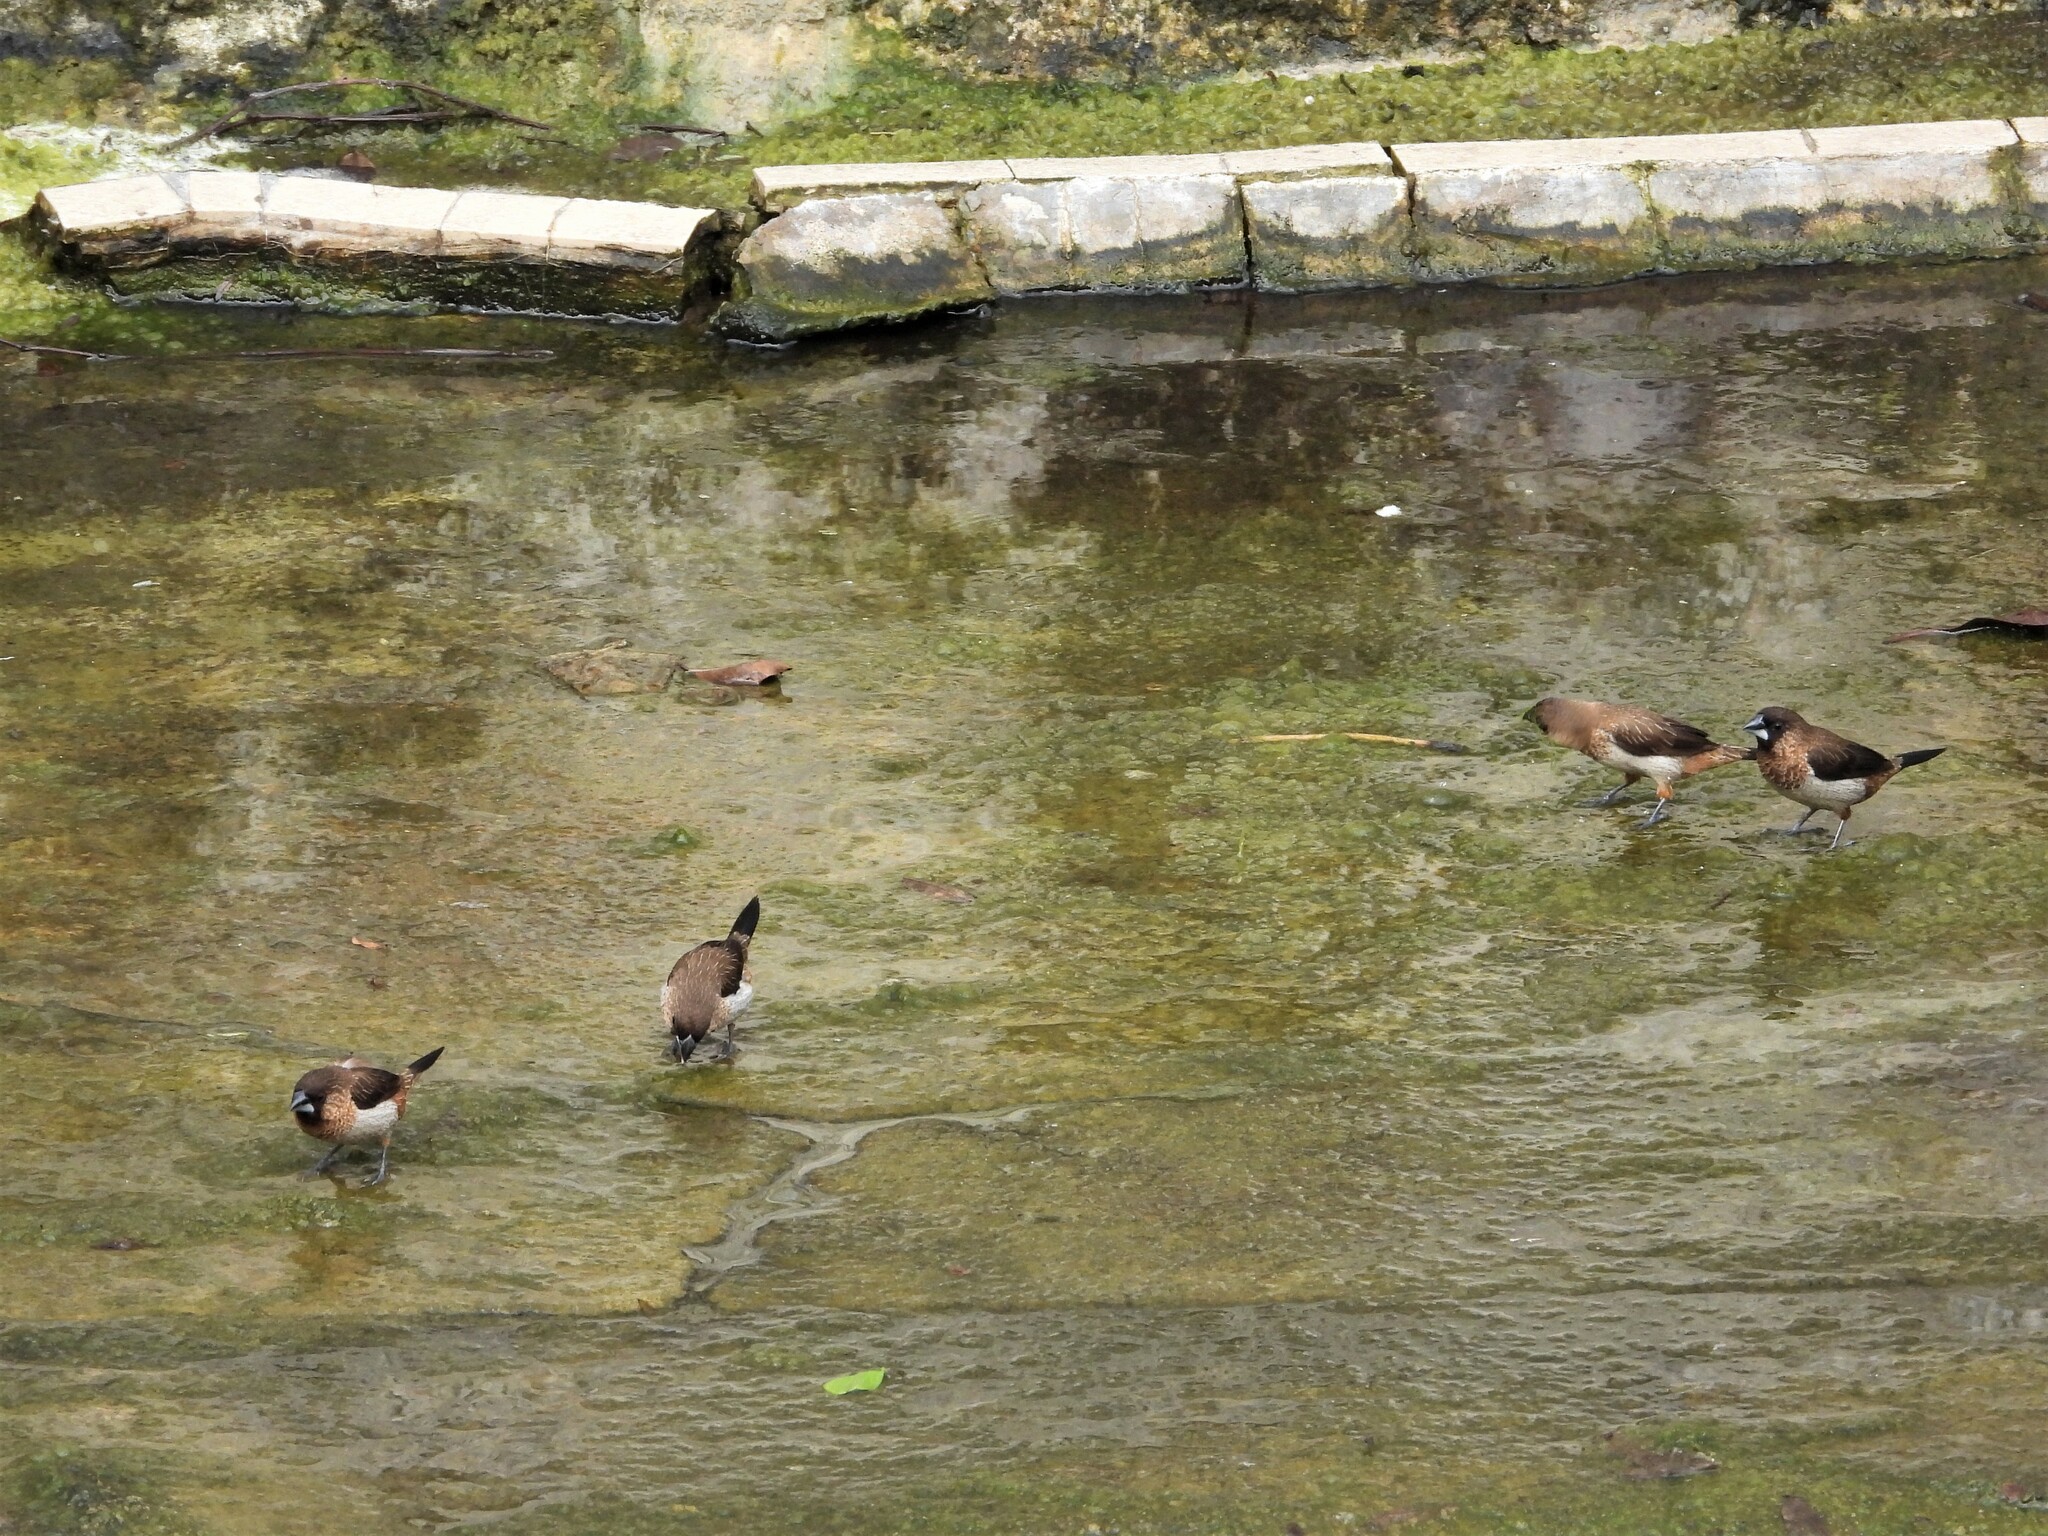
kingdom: Animalia
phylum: Chordata
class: Aves
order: Passeriformes
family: Estrildidae
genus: Lonchura
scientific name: Lonchura striata
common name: White-rumped munia
